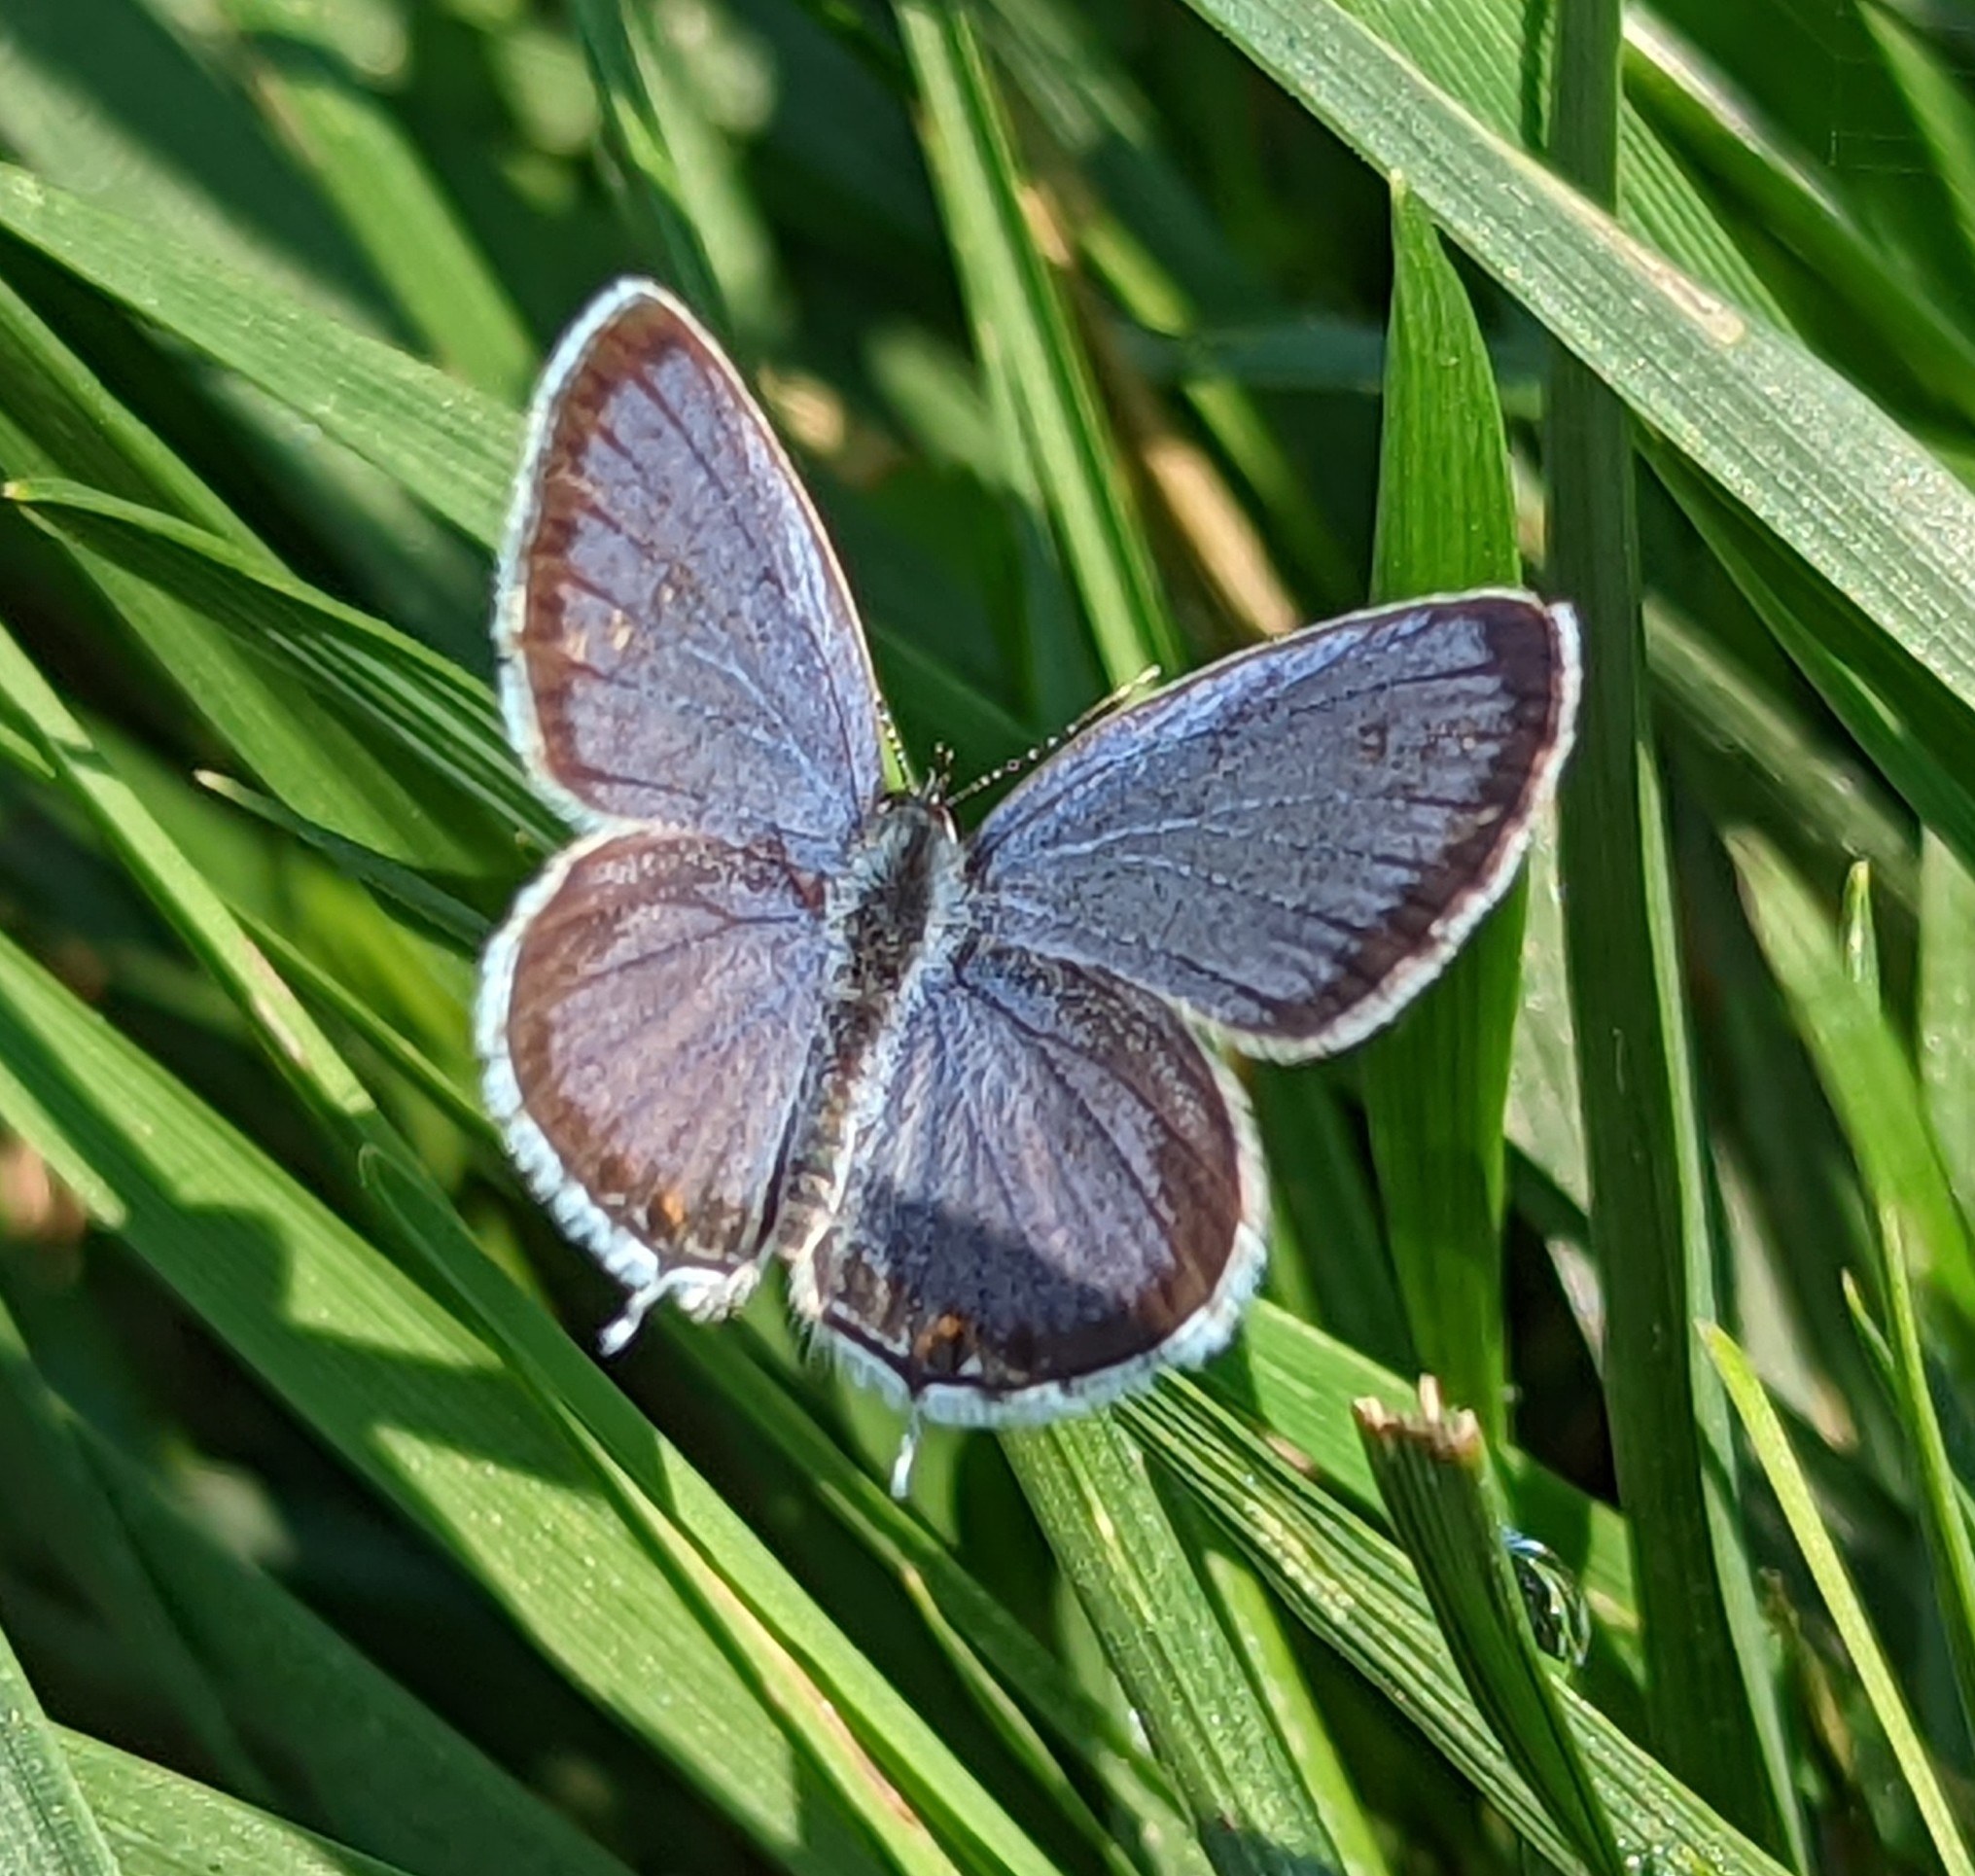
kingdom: Animalia
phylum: Arthropoda
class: Insecta
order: Lepidoptera
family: Lycaenidae
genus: Elkalyce
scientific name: Elkalyce comyntas
